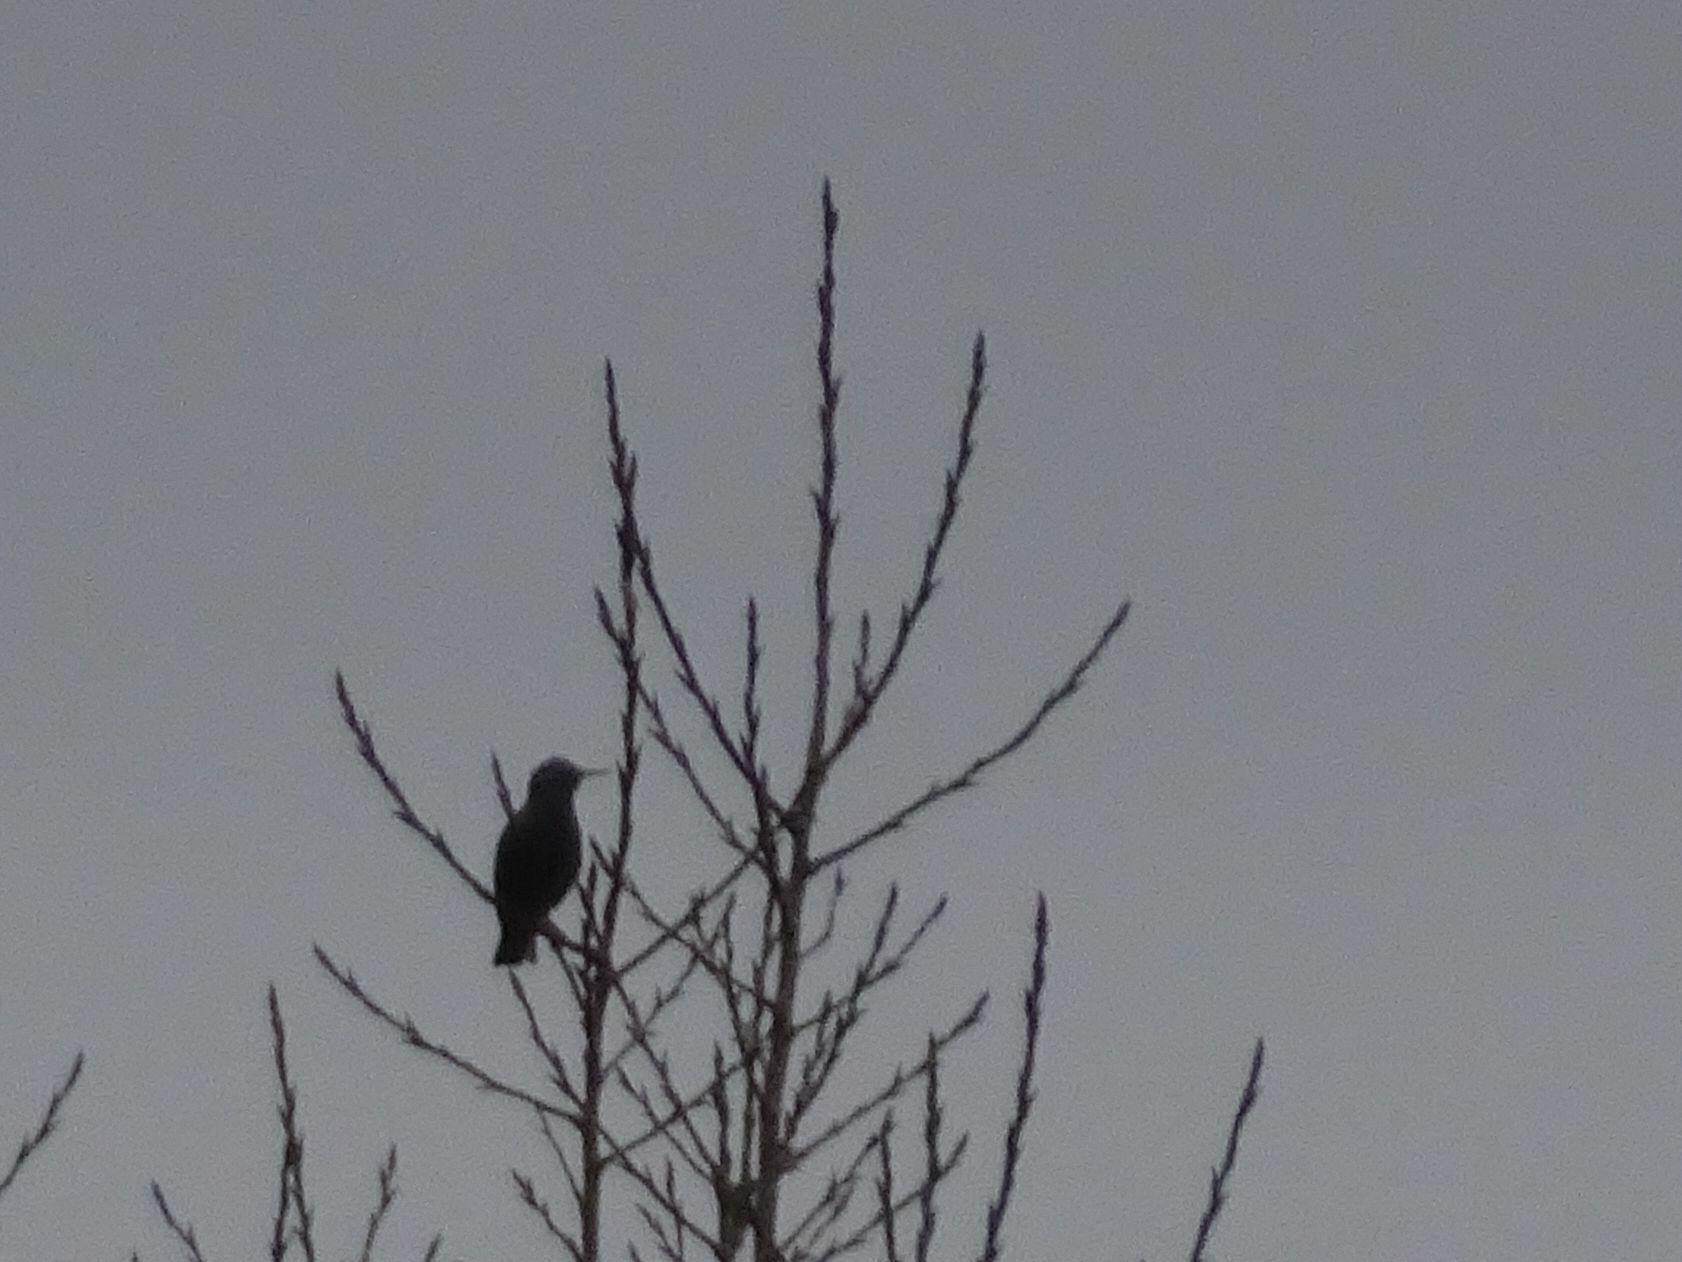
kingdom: Animalia
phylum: Chordata
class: Aves
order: Passeriformes
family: Sturnidae
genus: Sturnus
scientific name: Sturnus vulgaris
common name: Common starling
